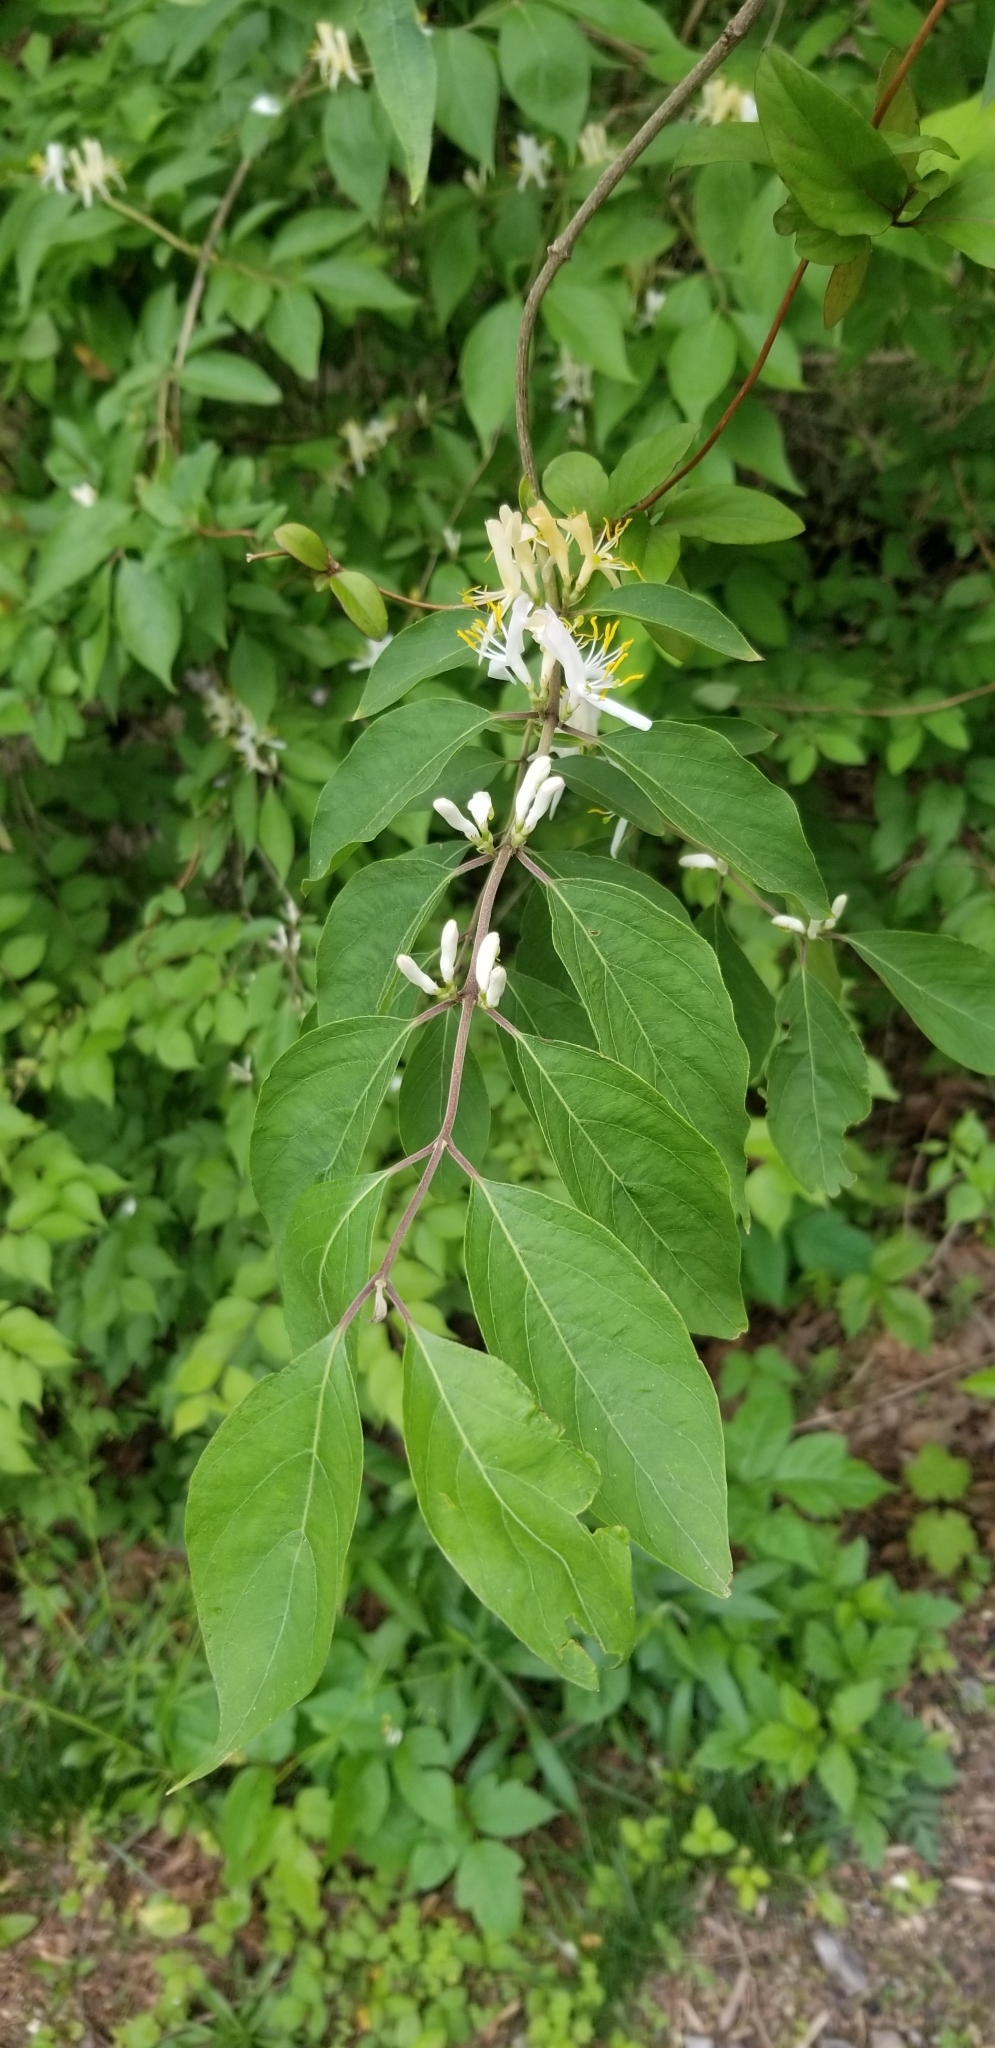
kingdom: Plantae
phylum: Tracheophyta
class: Magnoliopsida
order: Dipsacales
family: Caprifoliaceae
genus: Lonicera
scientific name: Lonicera maackii
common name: Amur honeysuckle
